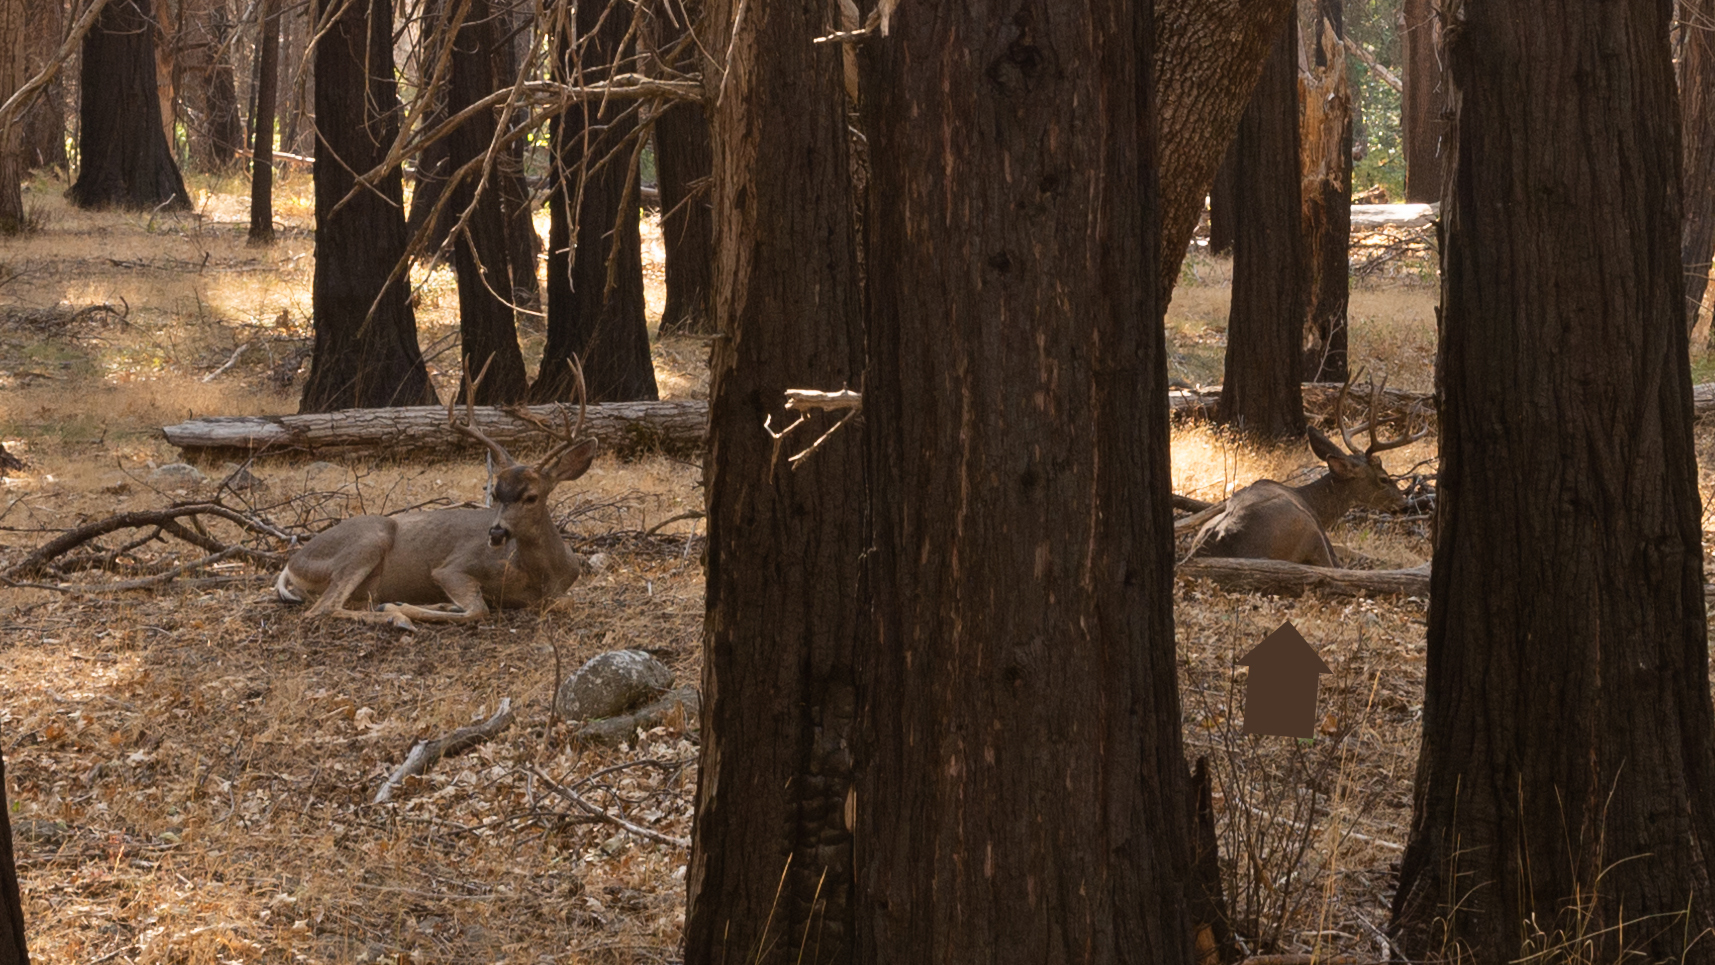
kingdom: Animalia
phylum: Chordata
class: Mammalia
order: Artiodactyla
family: Cervidae
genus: Odocoileus
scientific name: Odocoileus hemionus
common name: Mule deer
